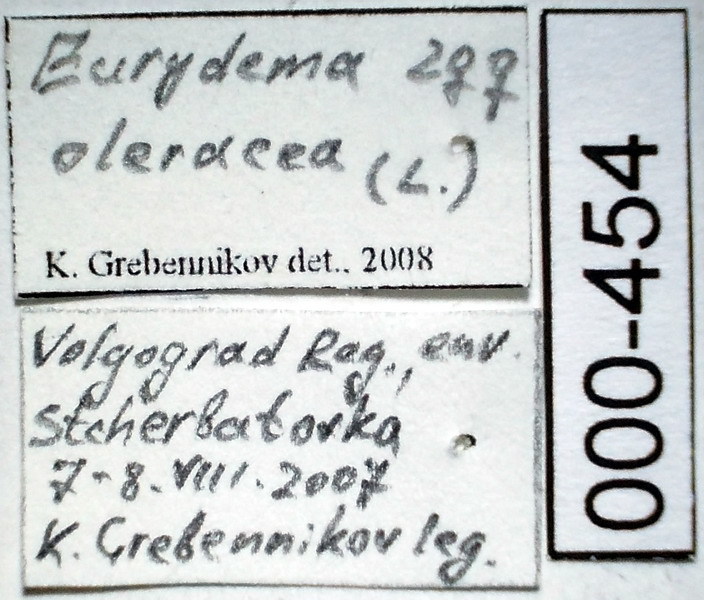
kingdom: Animalia
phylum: Arthropoda
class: Insecta
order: Hemiptera
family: Pentatomidae
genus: Eurydema
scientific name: Eurydema oleracea
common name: Cabbage bug
